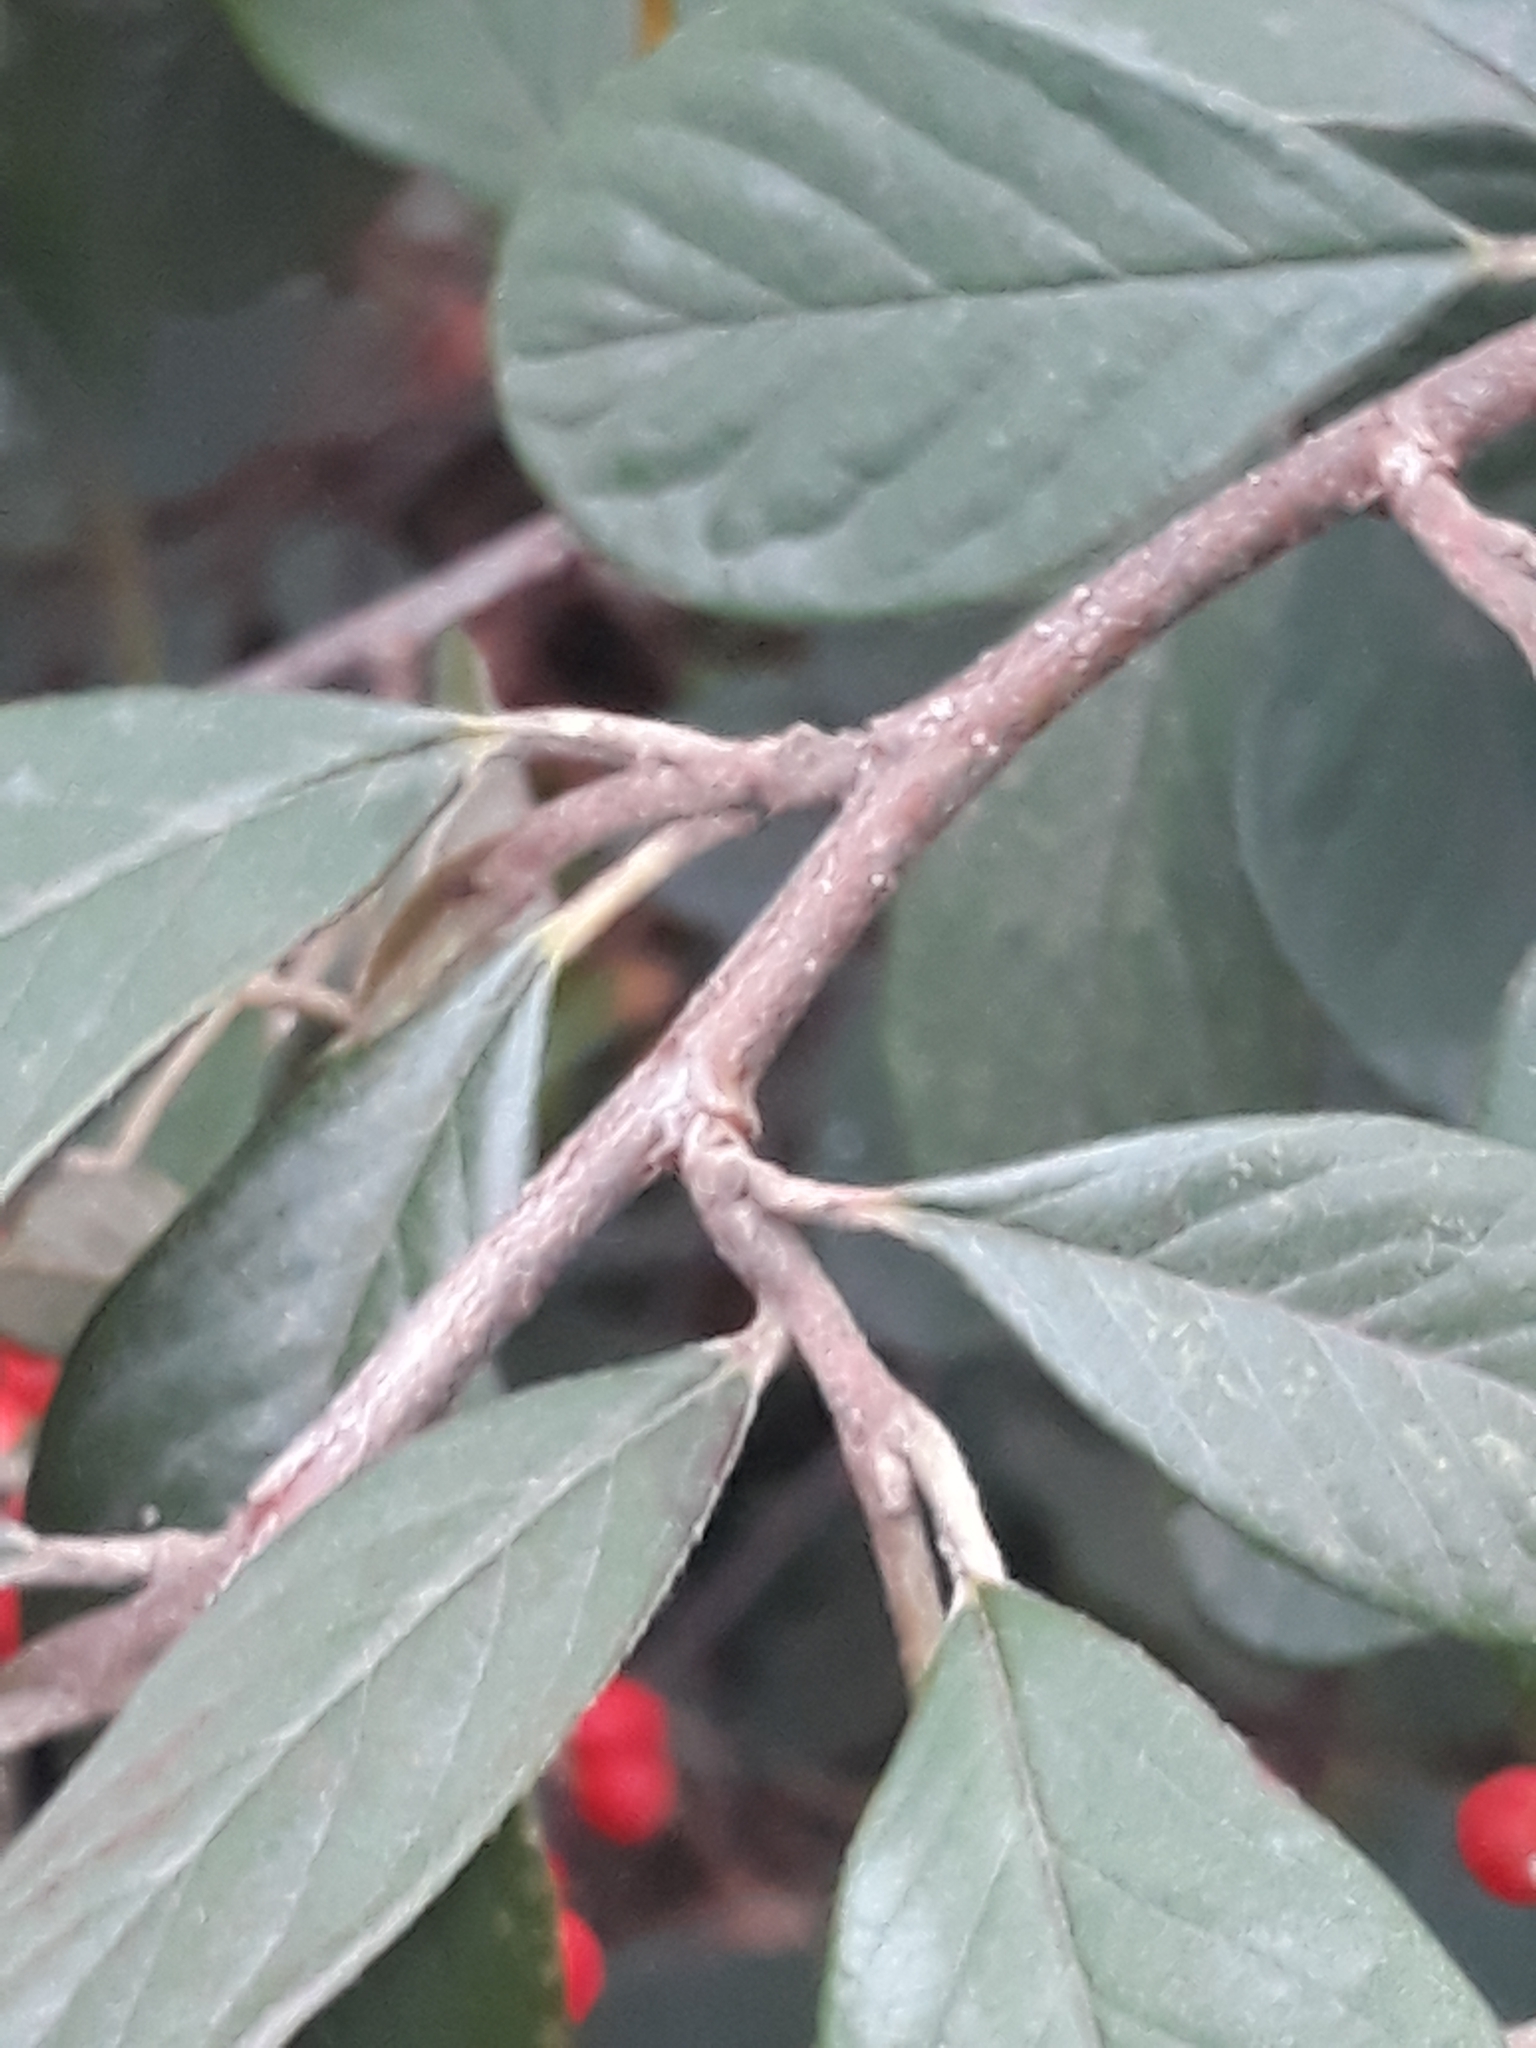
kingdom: Plantae
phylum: Tracheophyta
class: Magnoliopsida
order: Rosales
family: Rosaceae
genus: Cotoneaster
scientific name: Cotoneaster coriaceus
